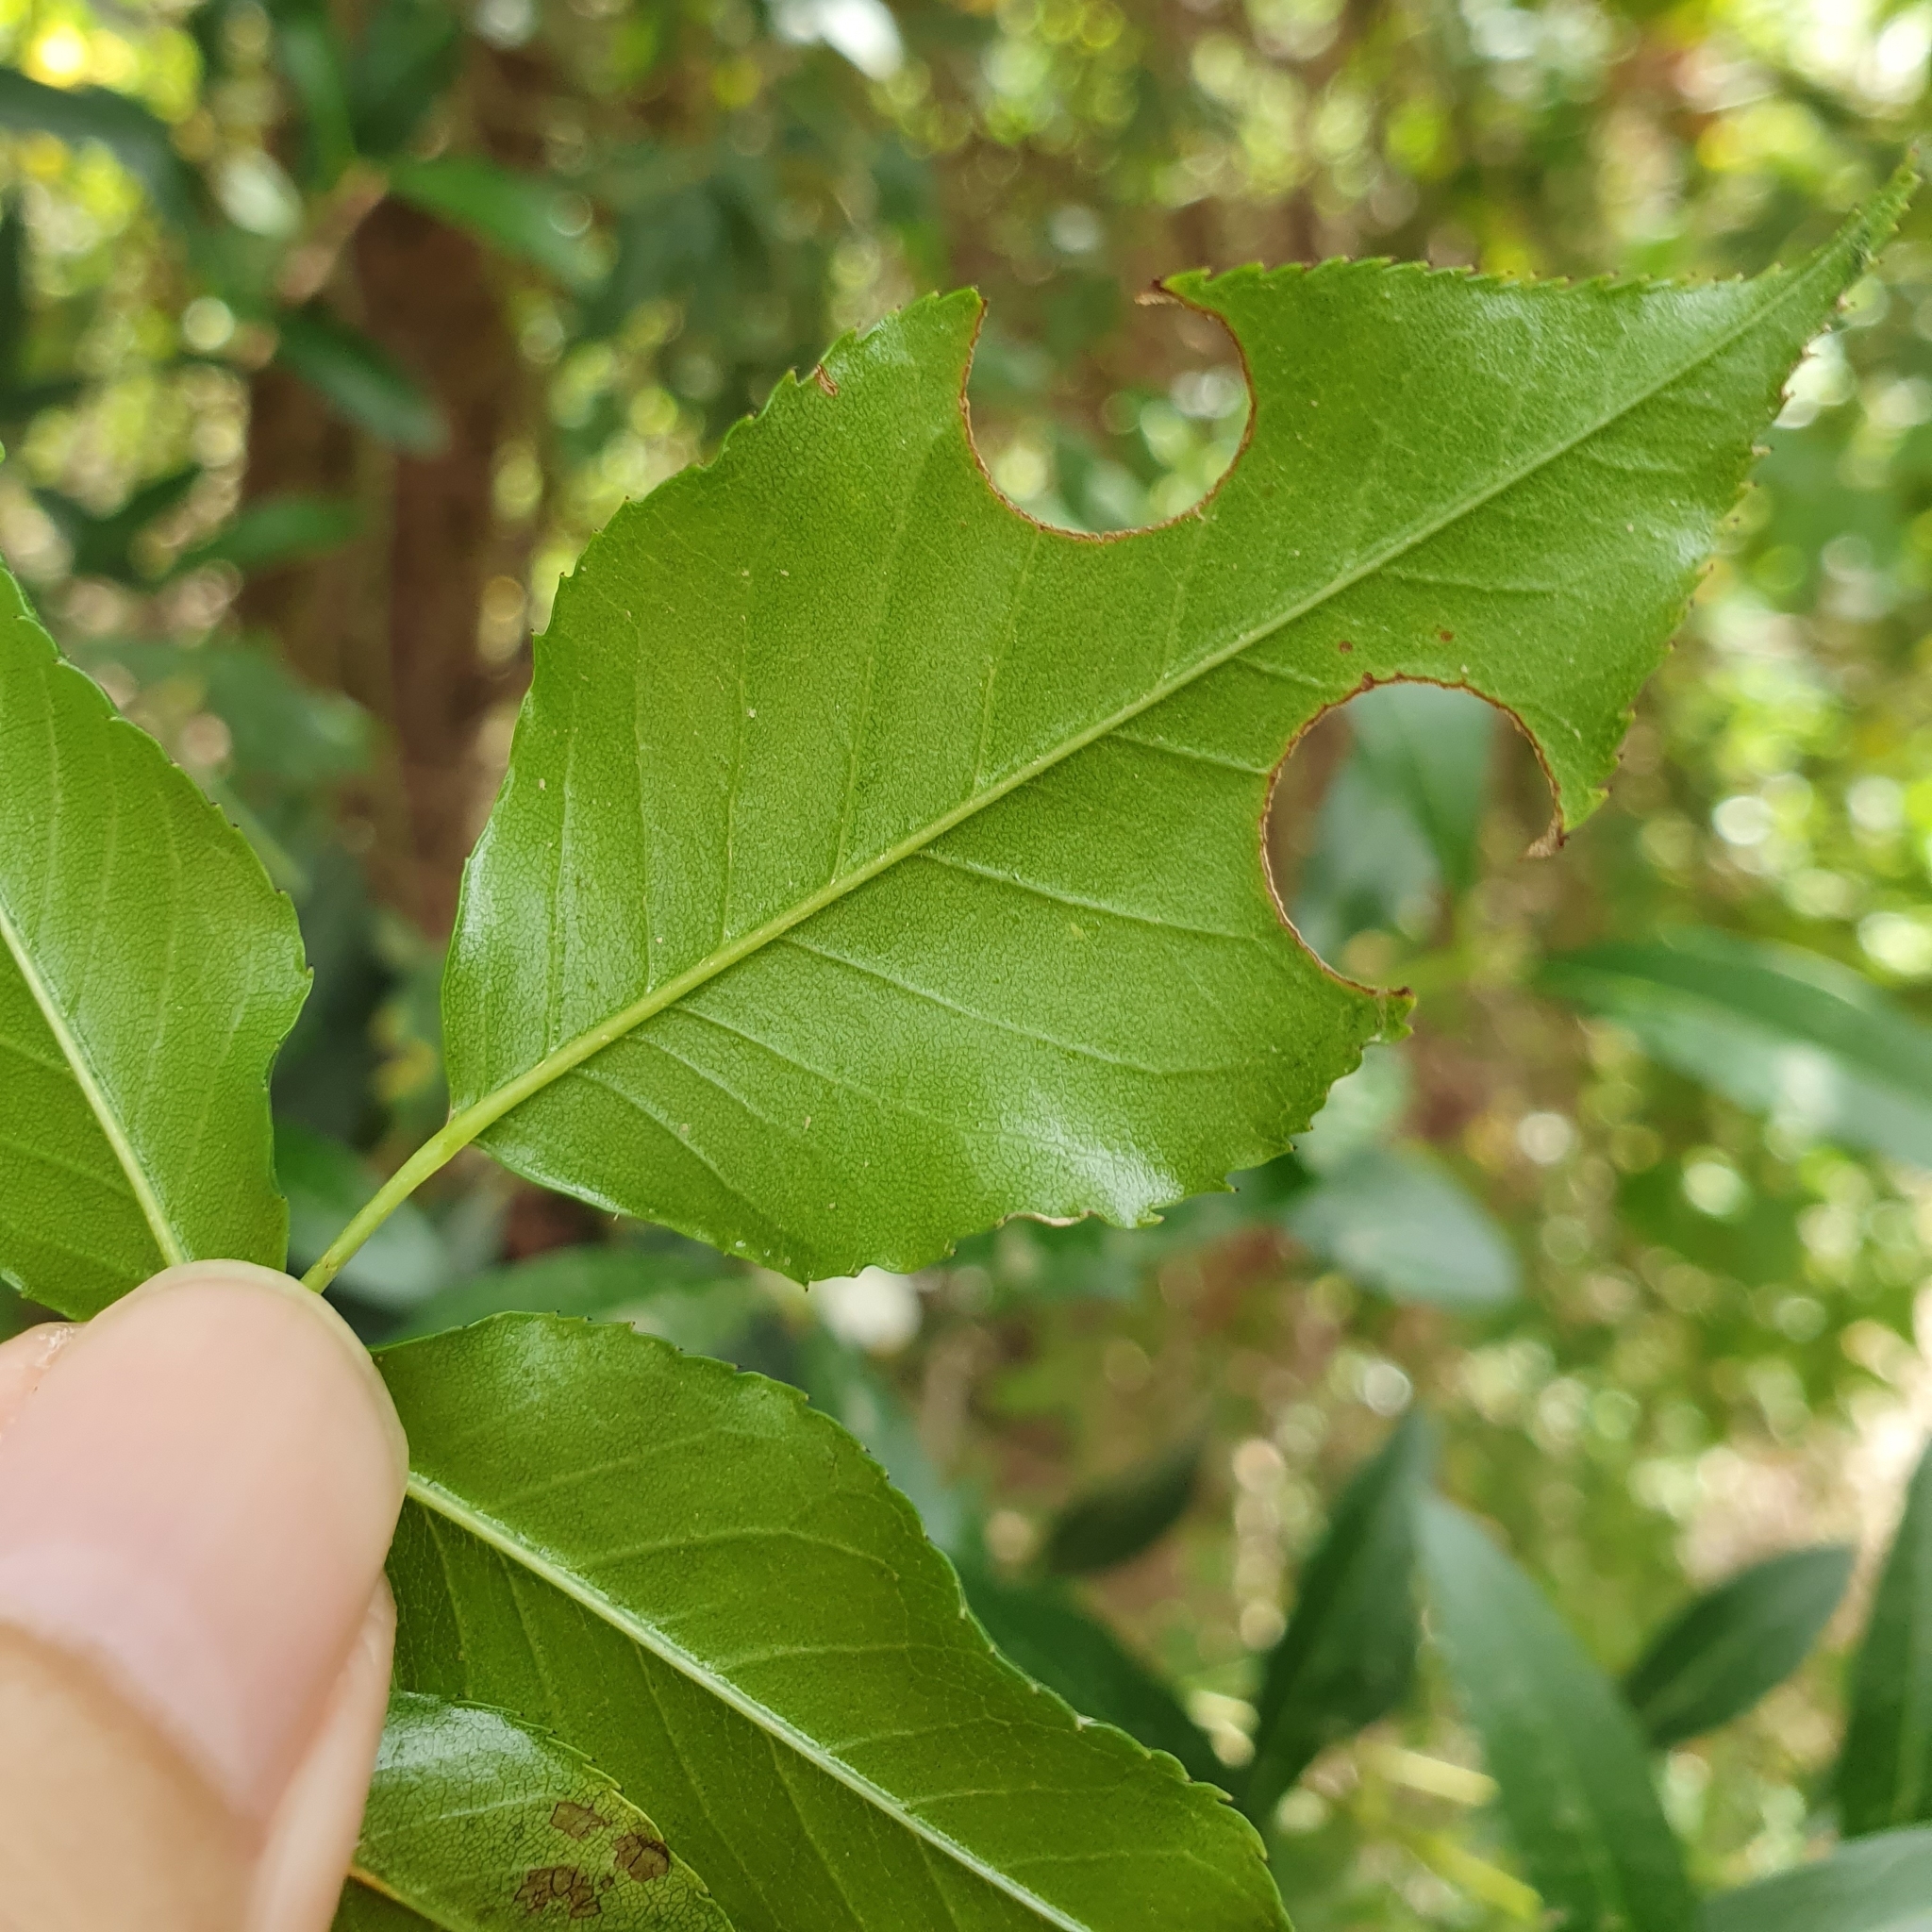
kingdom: Plantae
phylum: Tracheophyta
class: Magnoliopsida
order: Rosales
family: Rosaceae
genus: Rosa
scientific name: Rosa sempervirens
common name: Evergreen rose
